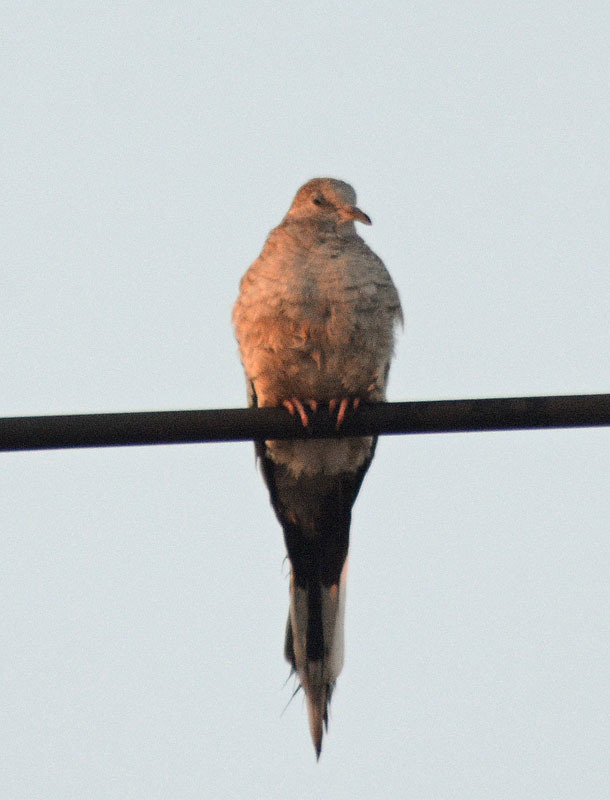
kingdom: Animalia
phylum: Chordata
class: Aves
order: Columbiformes
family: Columbidae
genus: Columbina
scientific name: Columbina inca
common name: Inca dove
